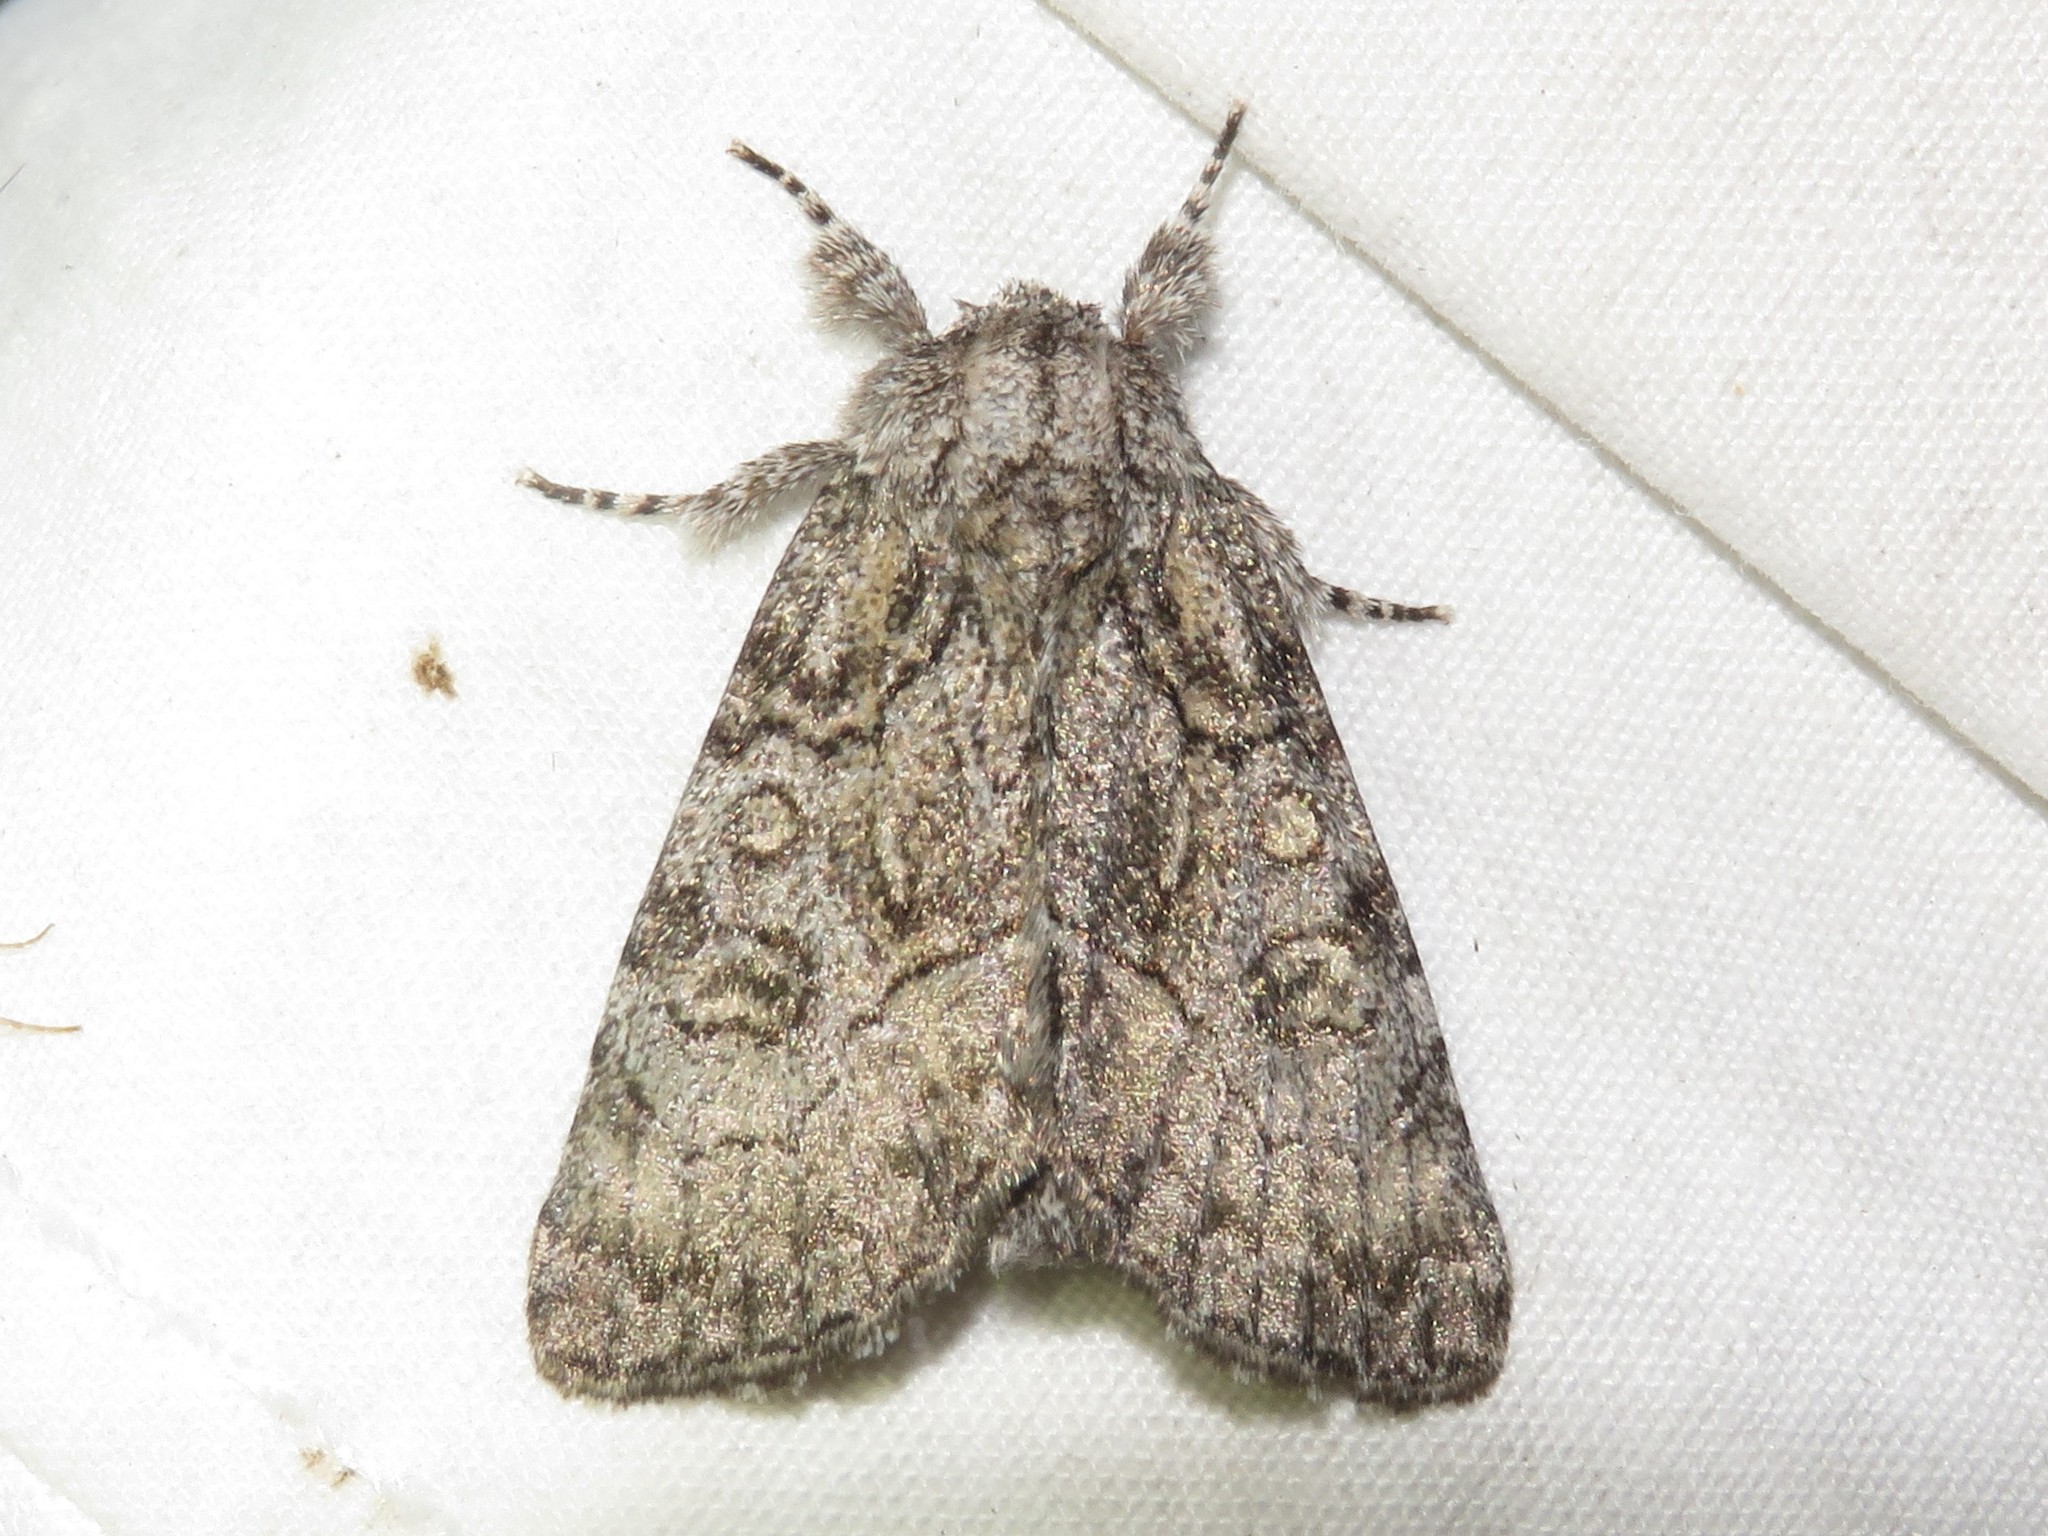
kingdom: Animalia
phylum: Arthropoda
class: Insecta
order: Lepidoptera
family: Noctuidae
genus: Raphia
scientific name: Raphia frater
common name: Brother
